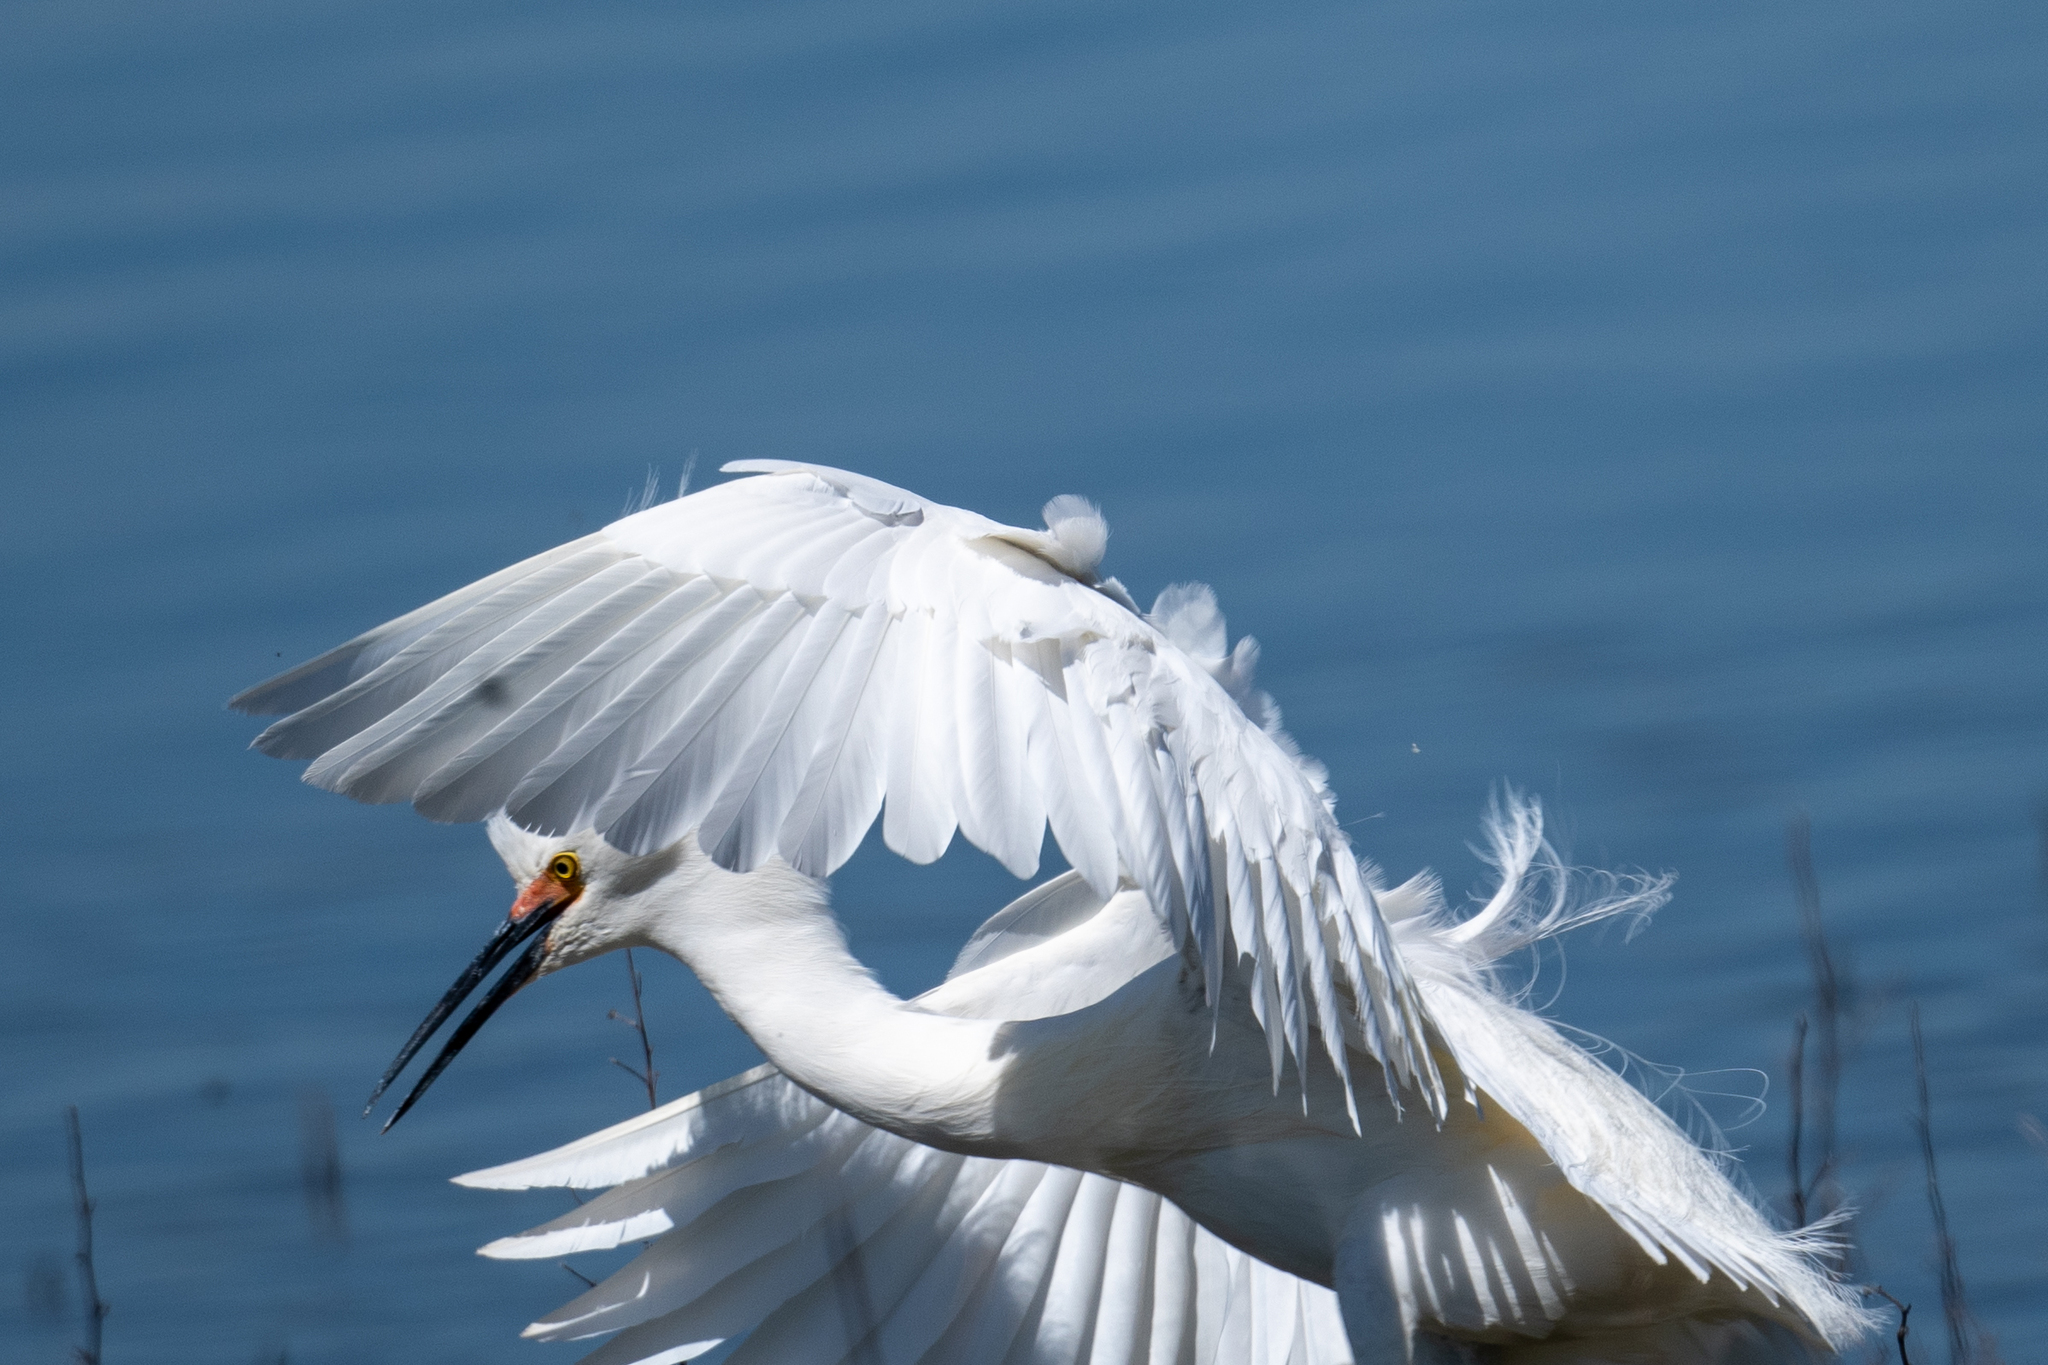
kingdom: Animalia
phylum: Chordata
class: Aves
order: Pelecaniformes
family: Ardeidae
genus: Egretta
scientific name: Egretta thula
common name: Snowy egret
